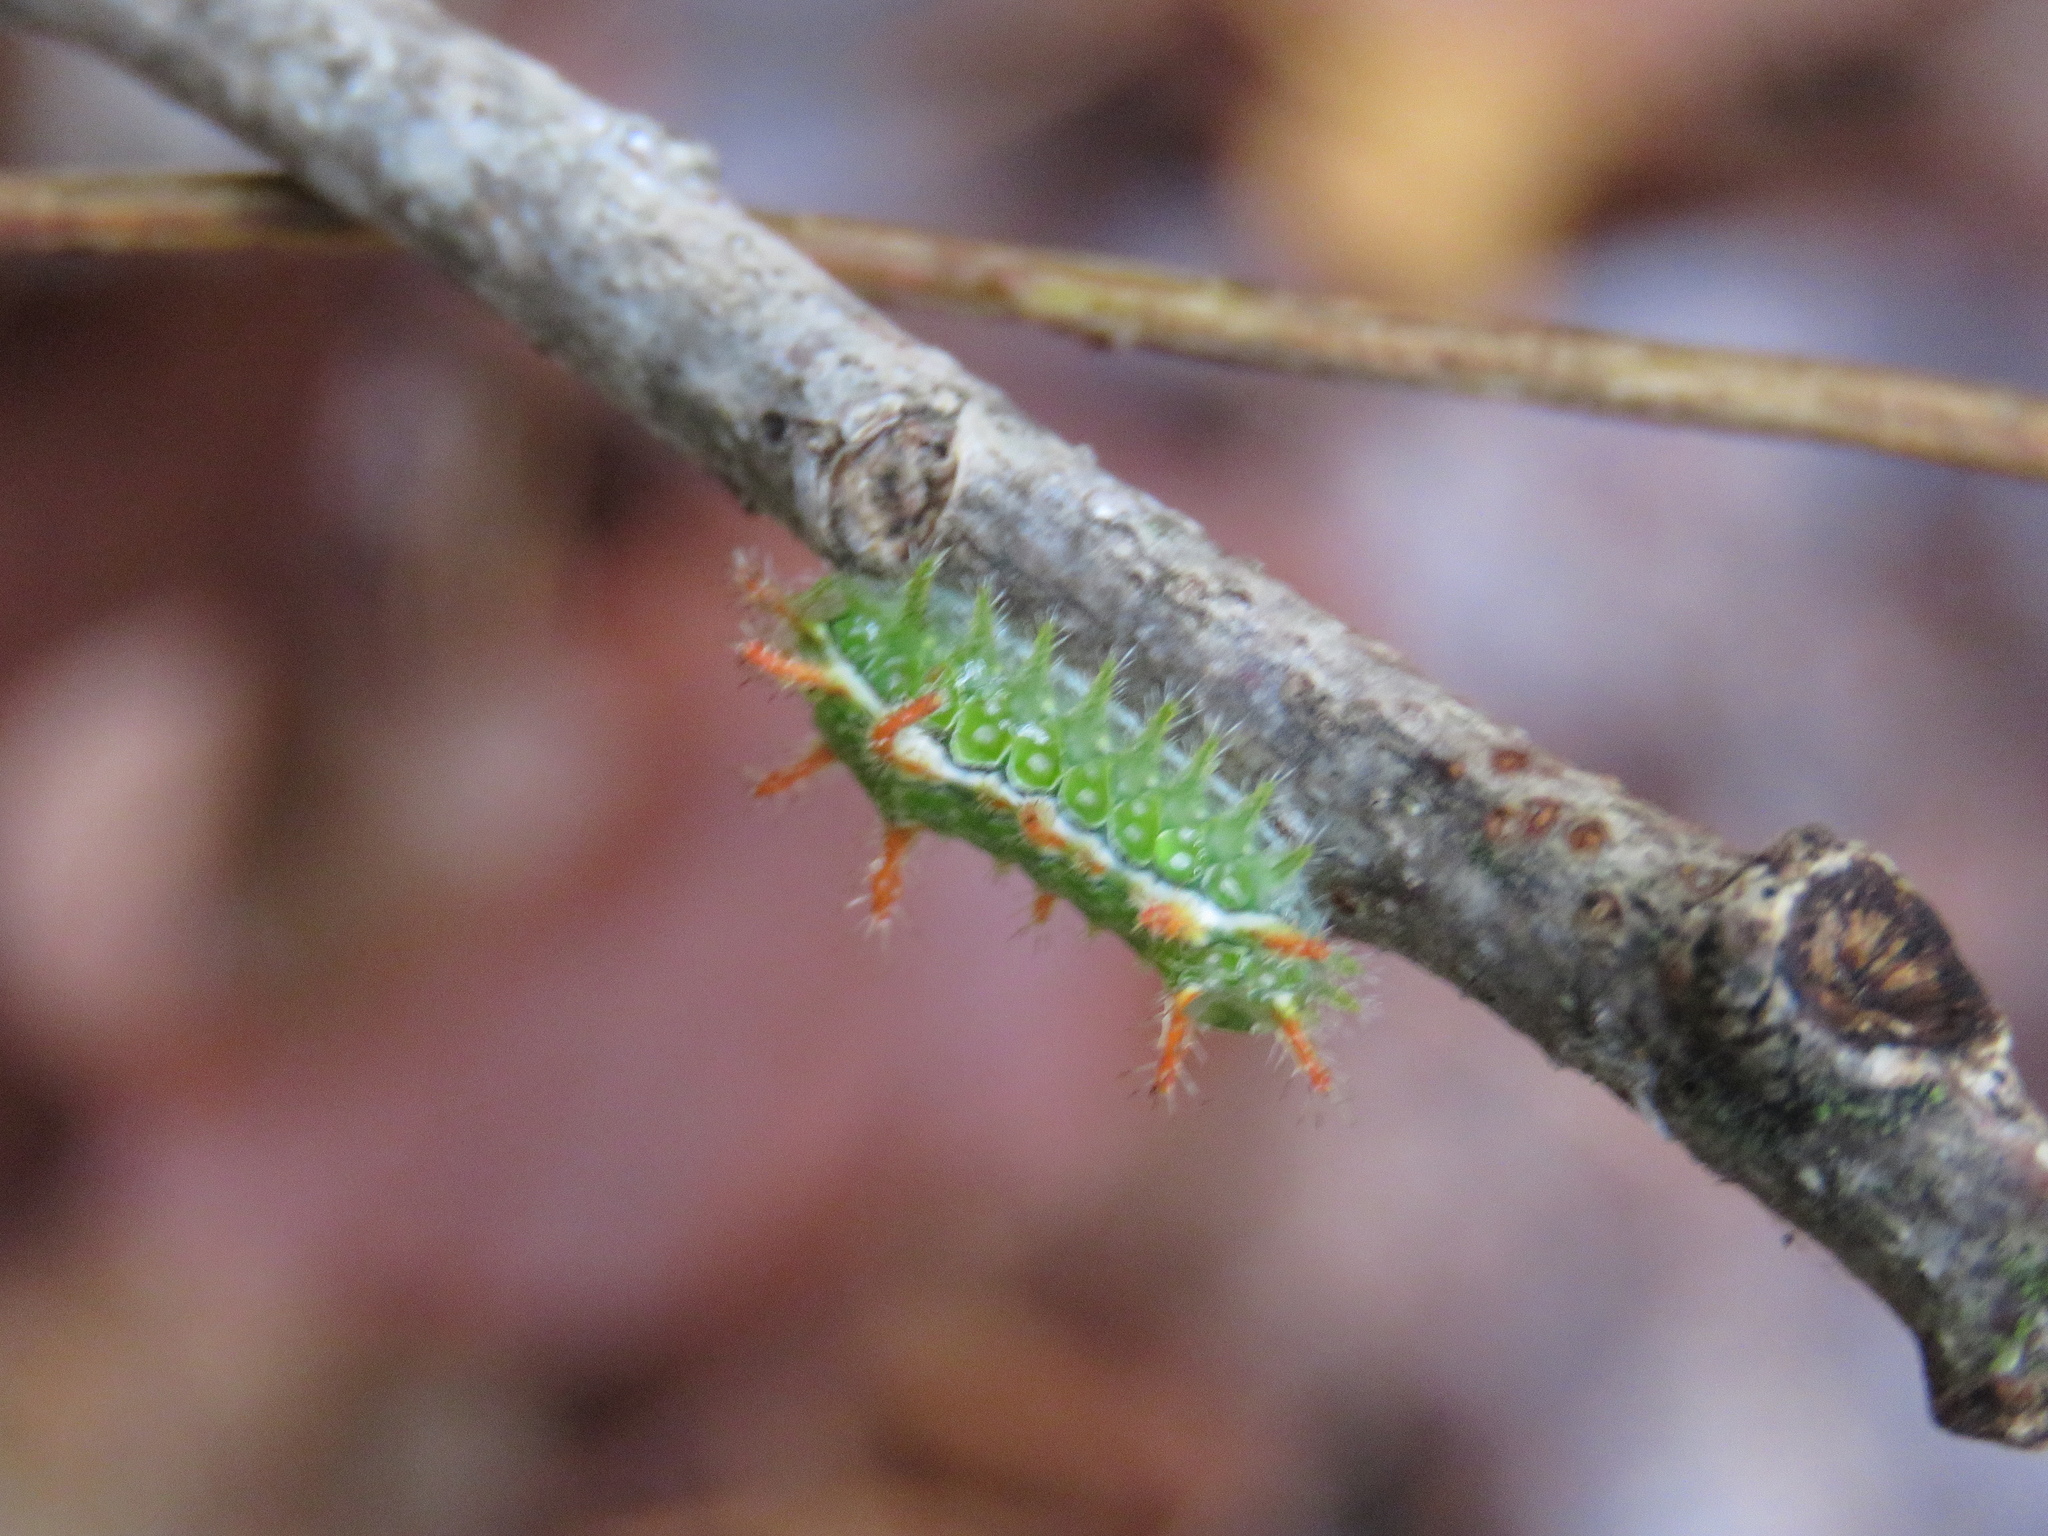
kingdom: Animalia
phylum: Arthropoda
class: Insecta
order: Lepidoptera
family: Limacodidae
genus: Euclea
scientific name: Euclea incisa
